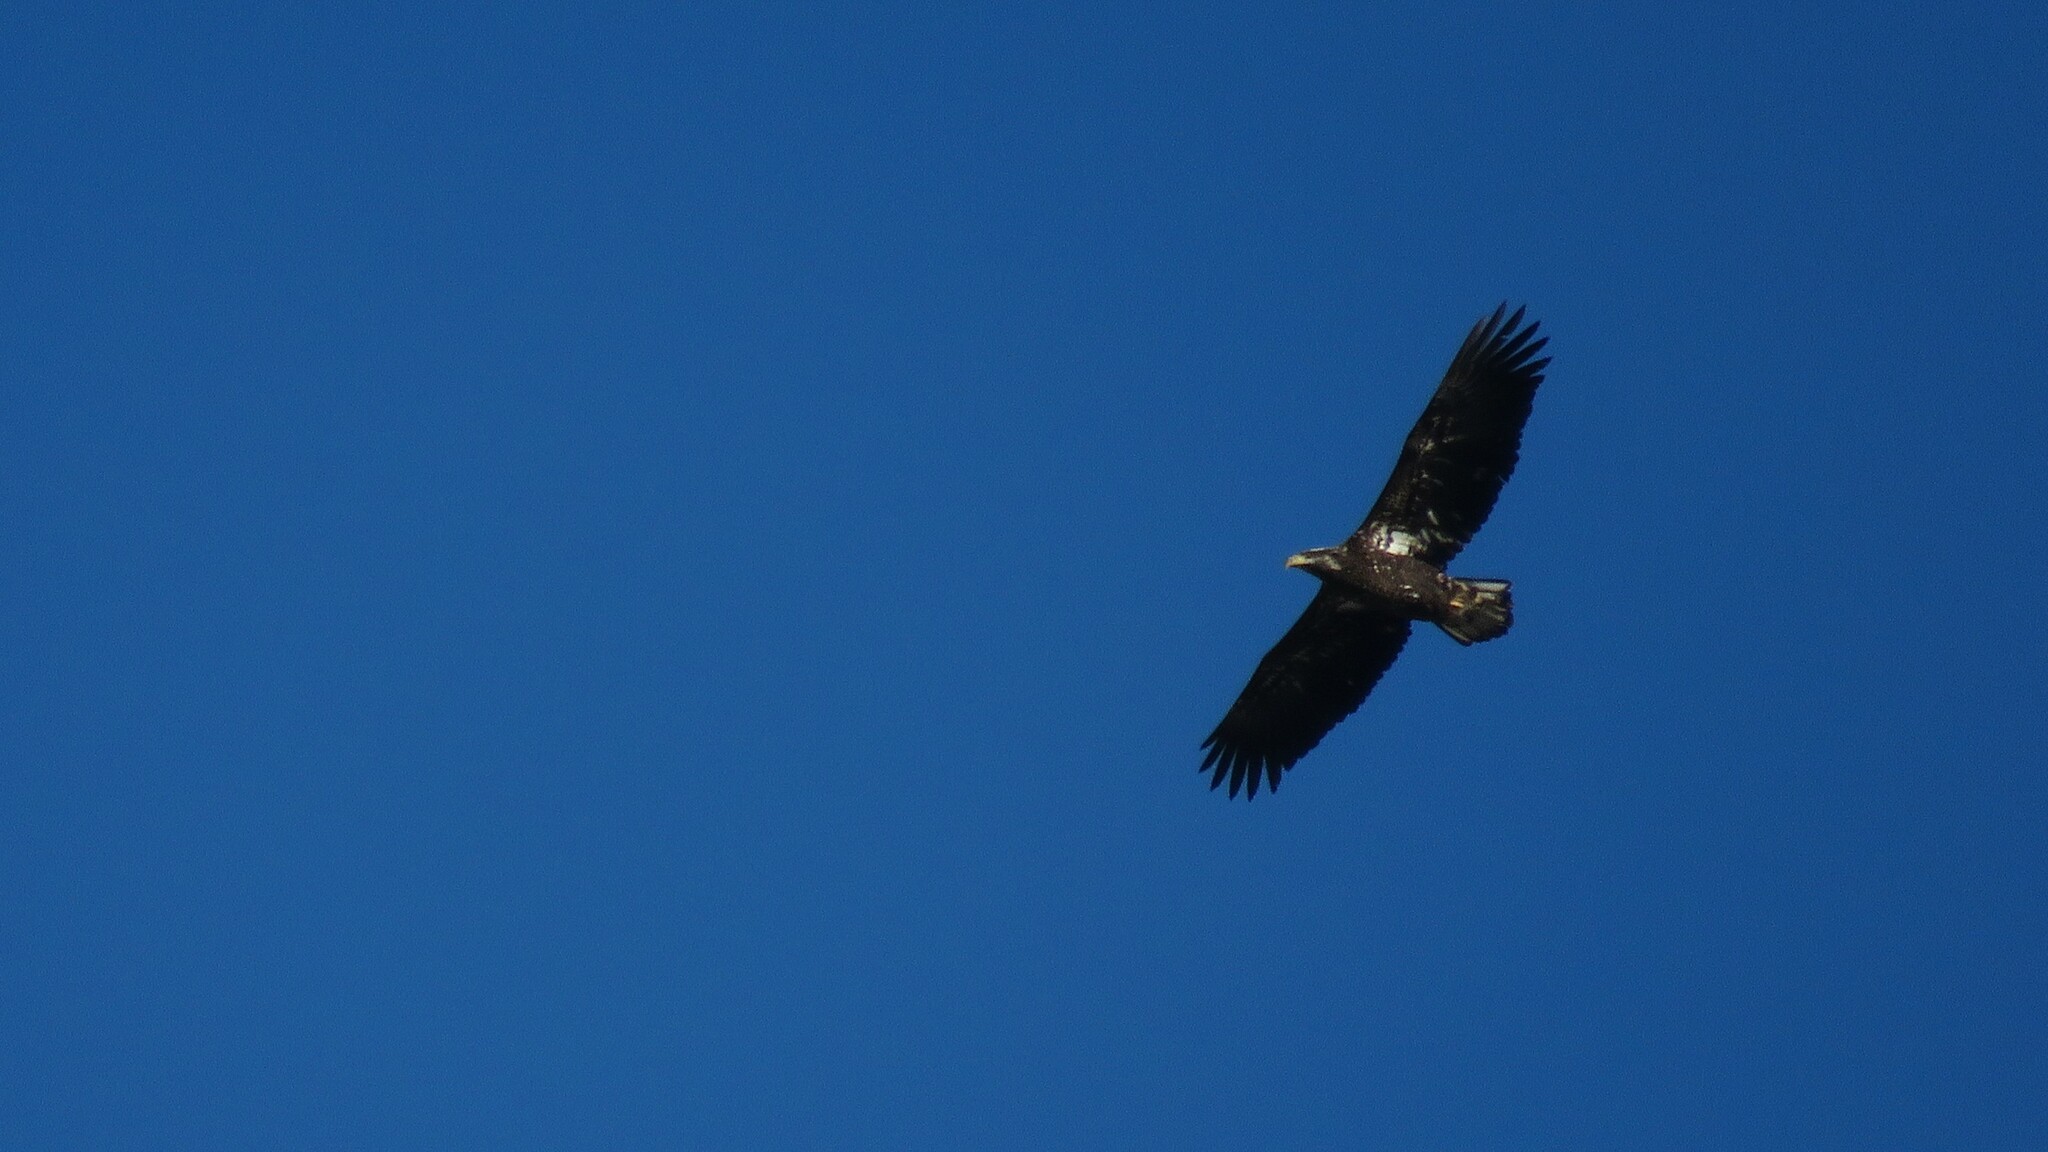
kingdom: Animalia
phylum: Chordata
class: Aves
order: Accipitriformes
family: Accipitridae
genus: Haliaeetus
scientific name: Haliaeetus leucocephalus
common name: Bald eagle
